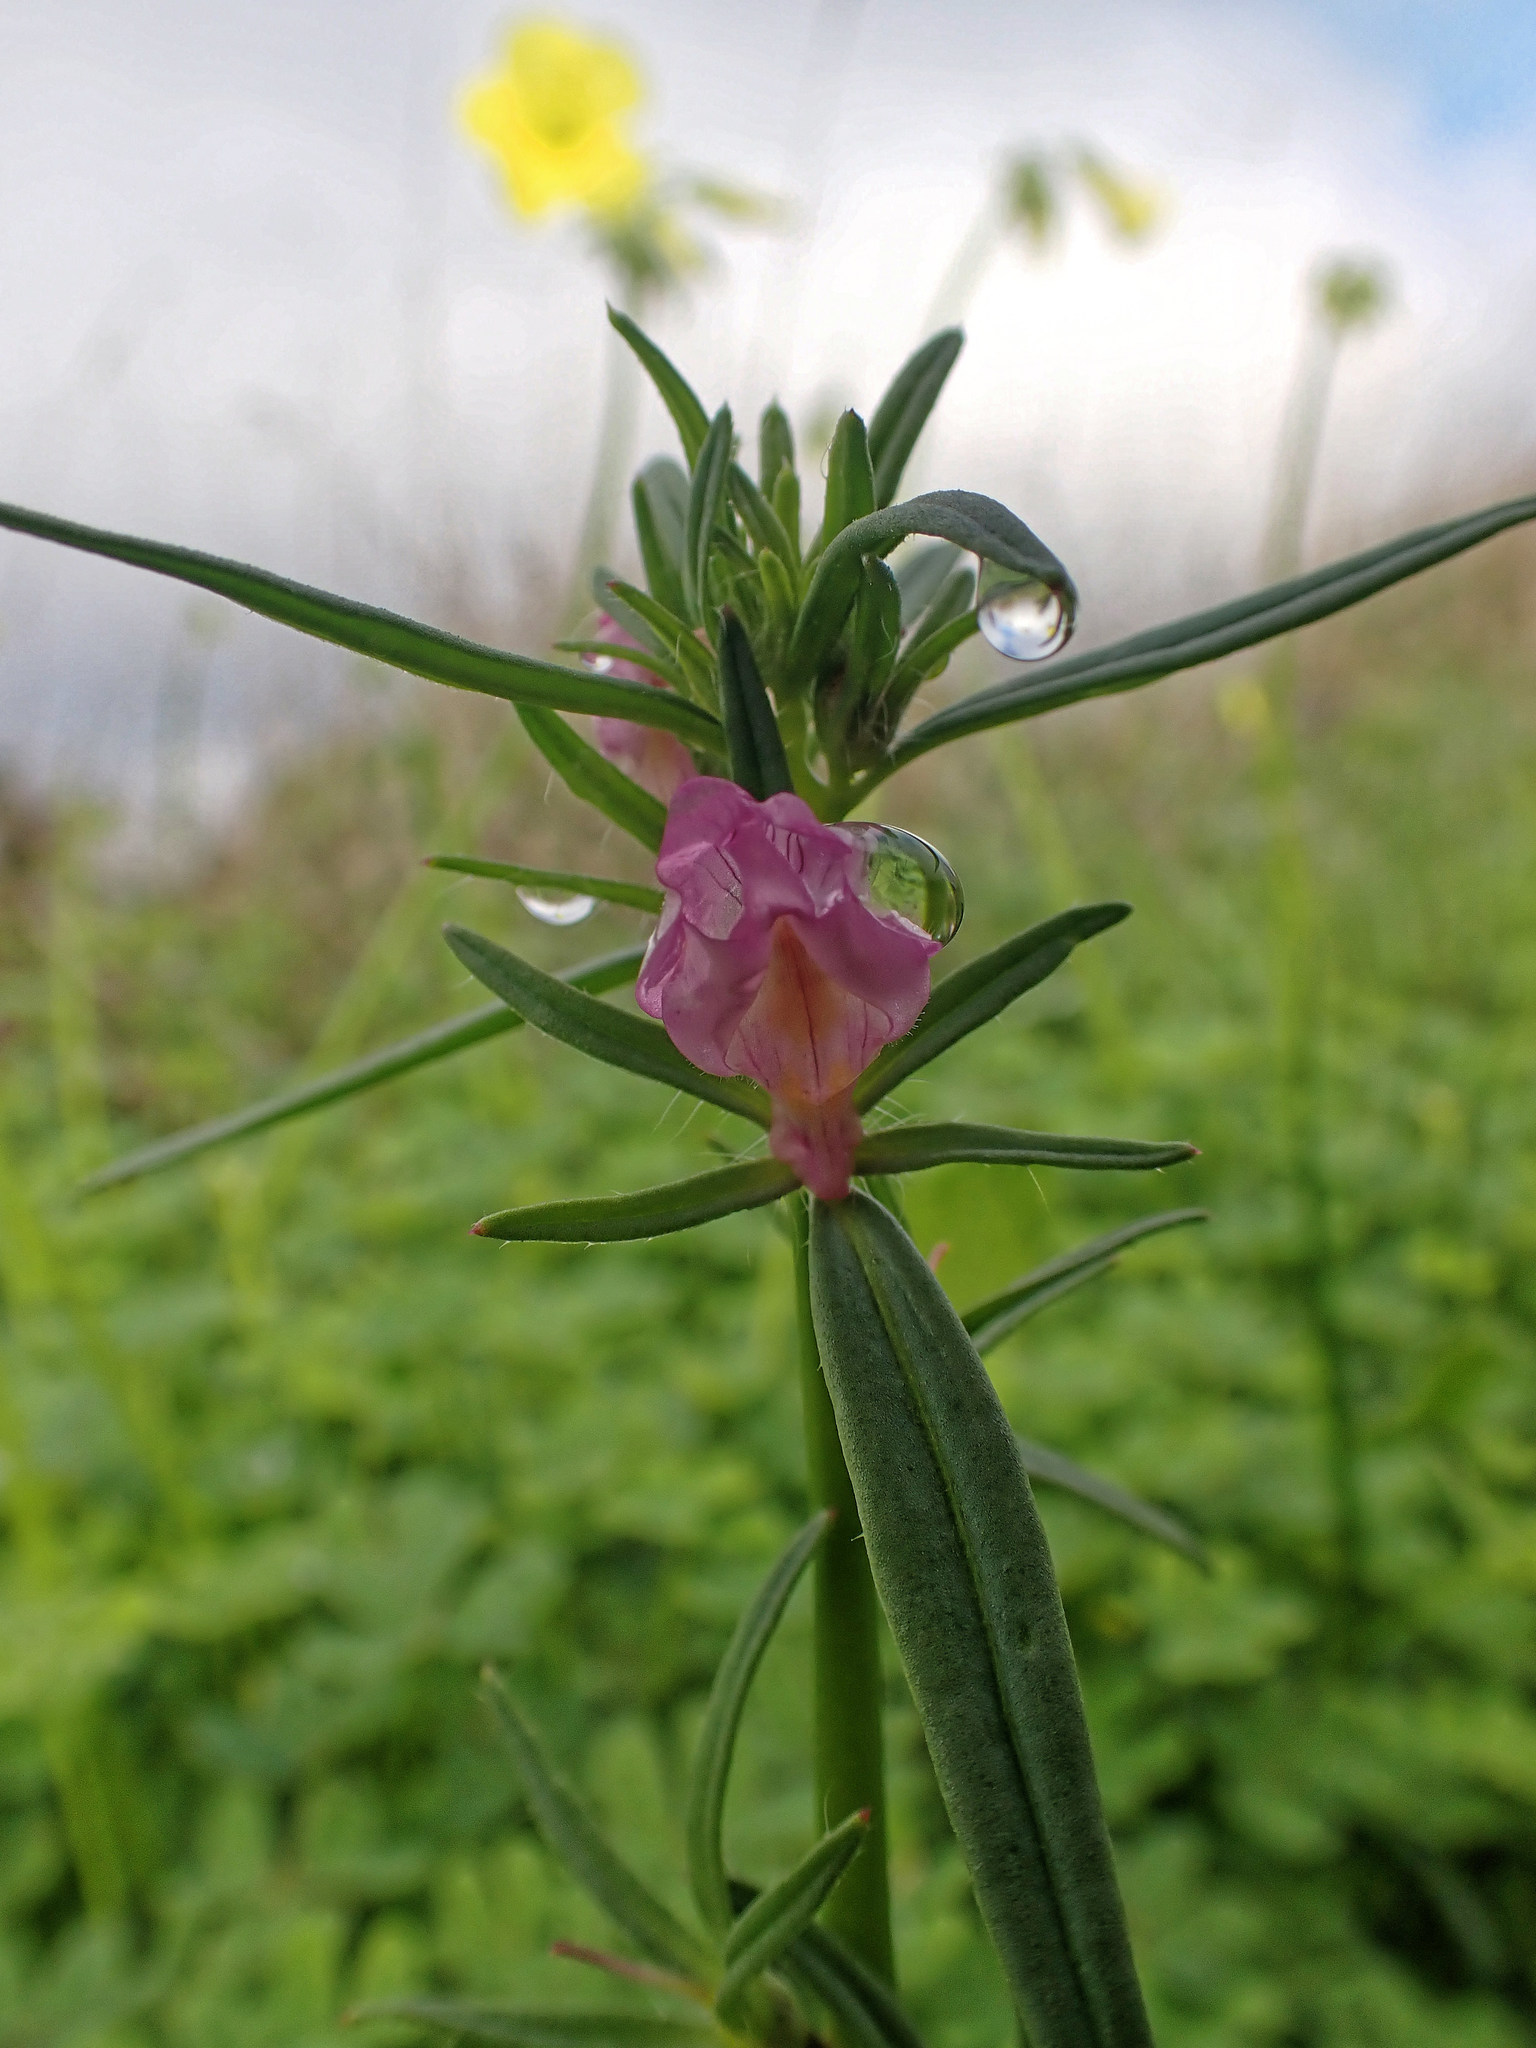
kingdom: Plantae
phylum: Tracheophyta
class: Magnoliopsida
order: Lamiales
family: Plantaginaceae
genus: Misopates
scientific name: Misopates orontium
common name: Weasel's-snout
